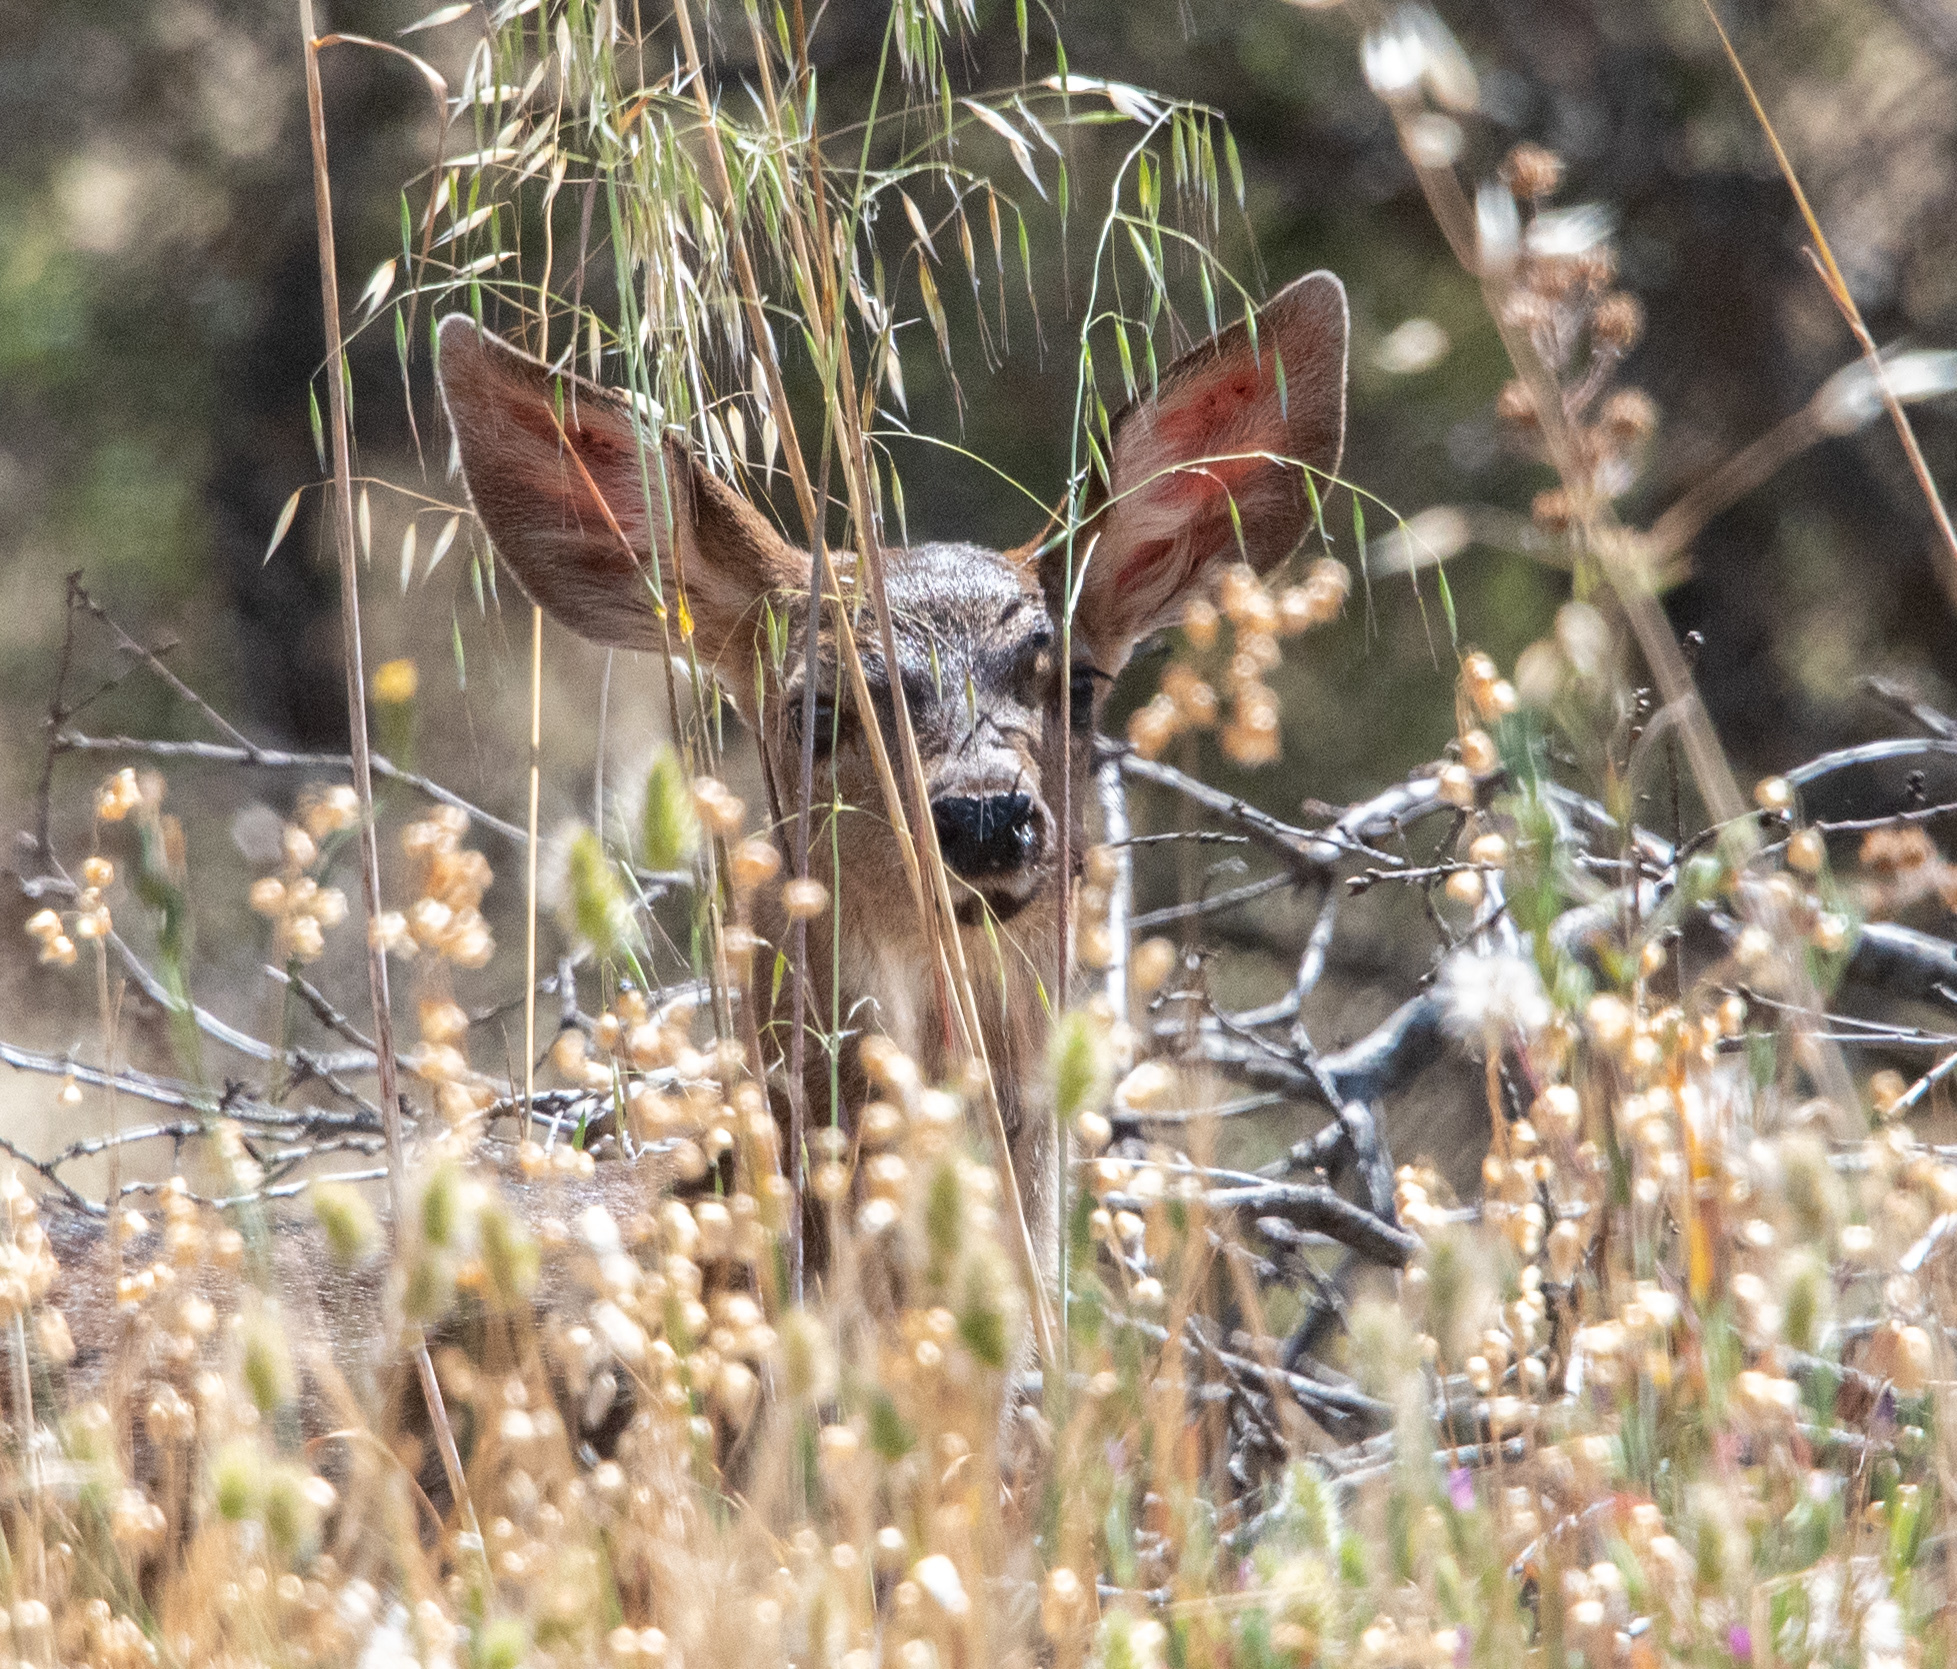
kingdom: Animalia
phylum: Chordata
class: Mammalia
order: Artiodactyla
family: Cervidae
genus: Odocoileus
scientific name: Odocoileus hemionus
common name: Mule deer
